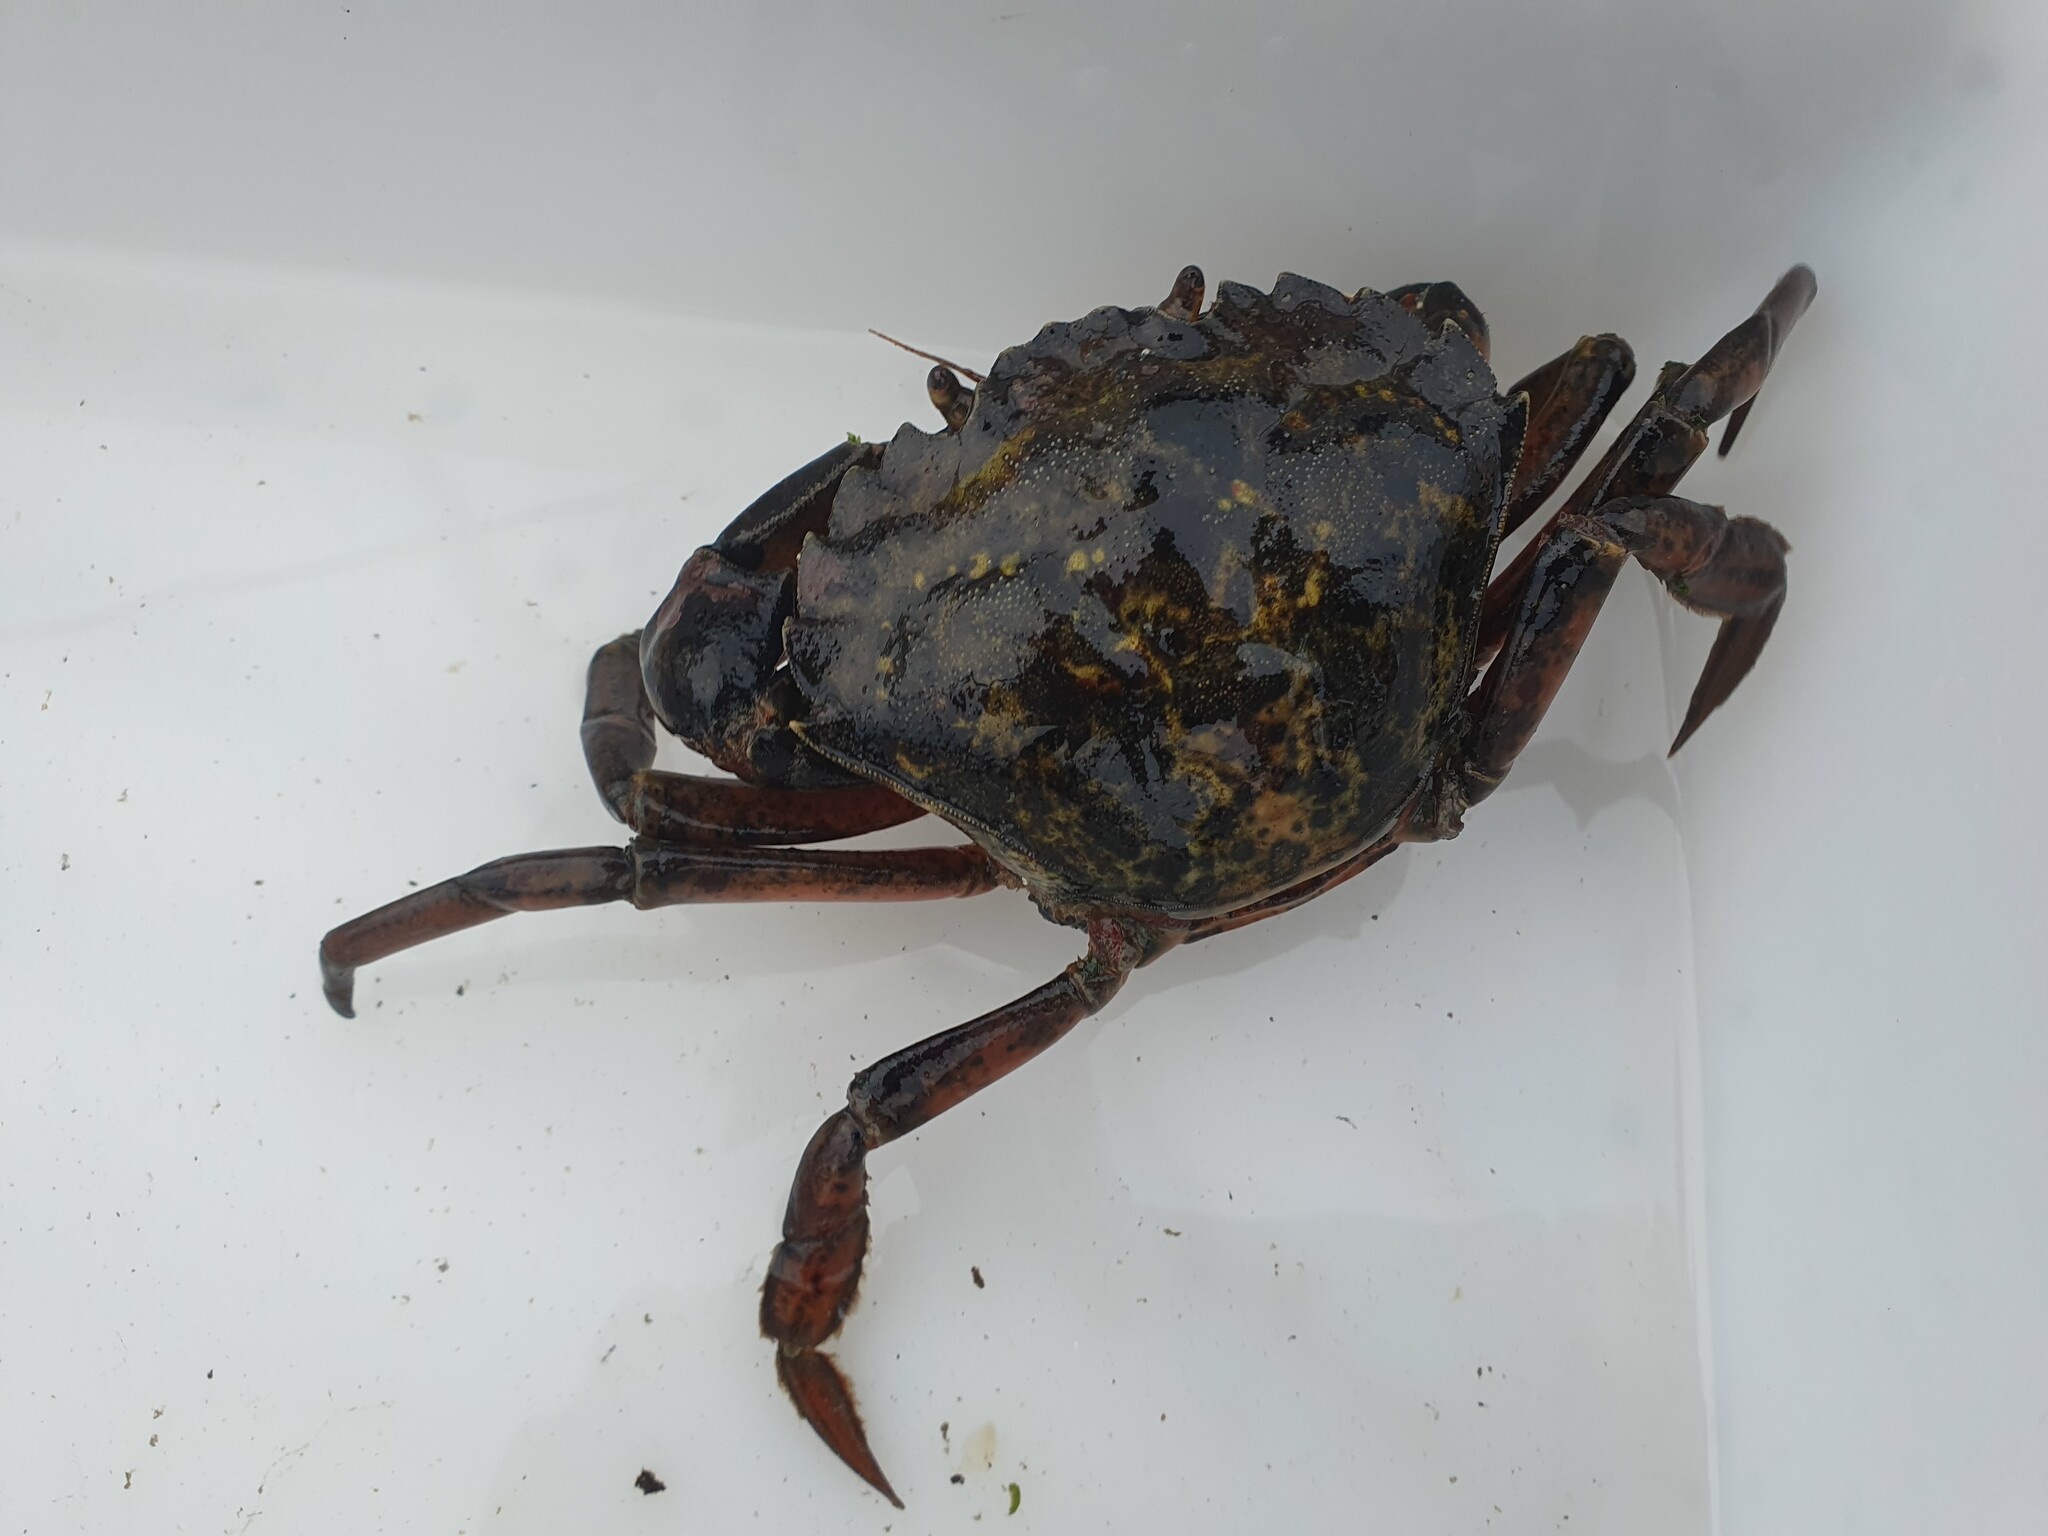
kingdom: Animalia
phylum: Arthropoda
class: Malacostraca
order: Decapoda
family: Carcinidae
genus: Carcinus
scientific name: Carcinus maenas
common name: European green crab
